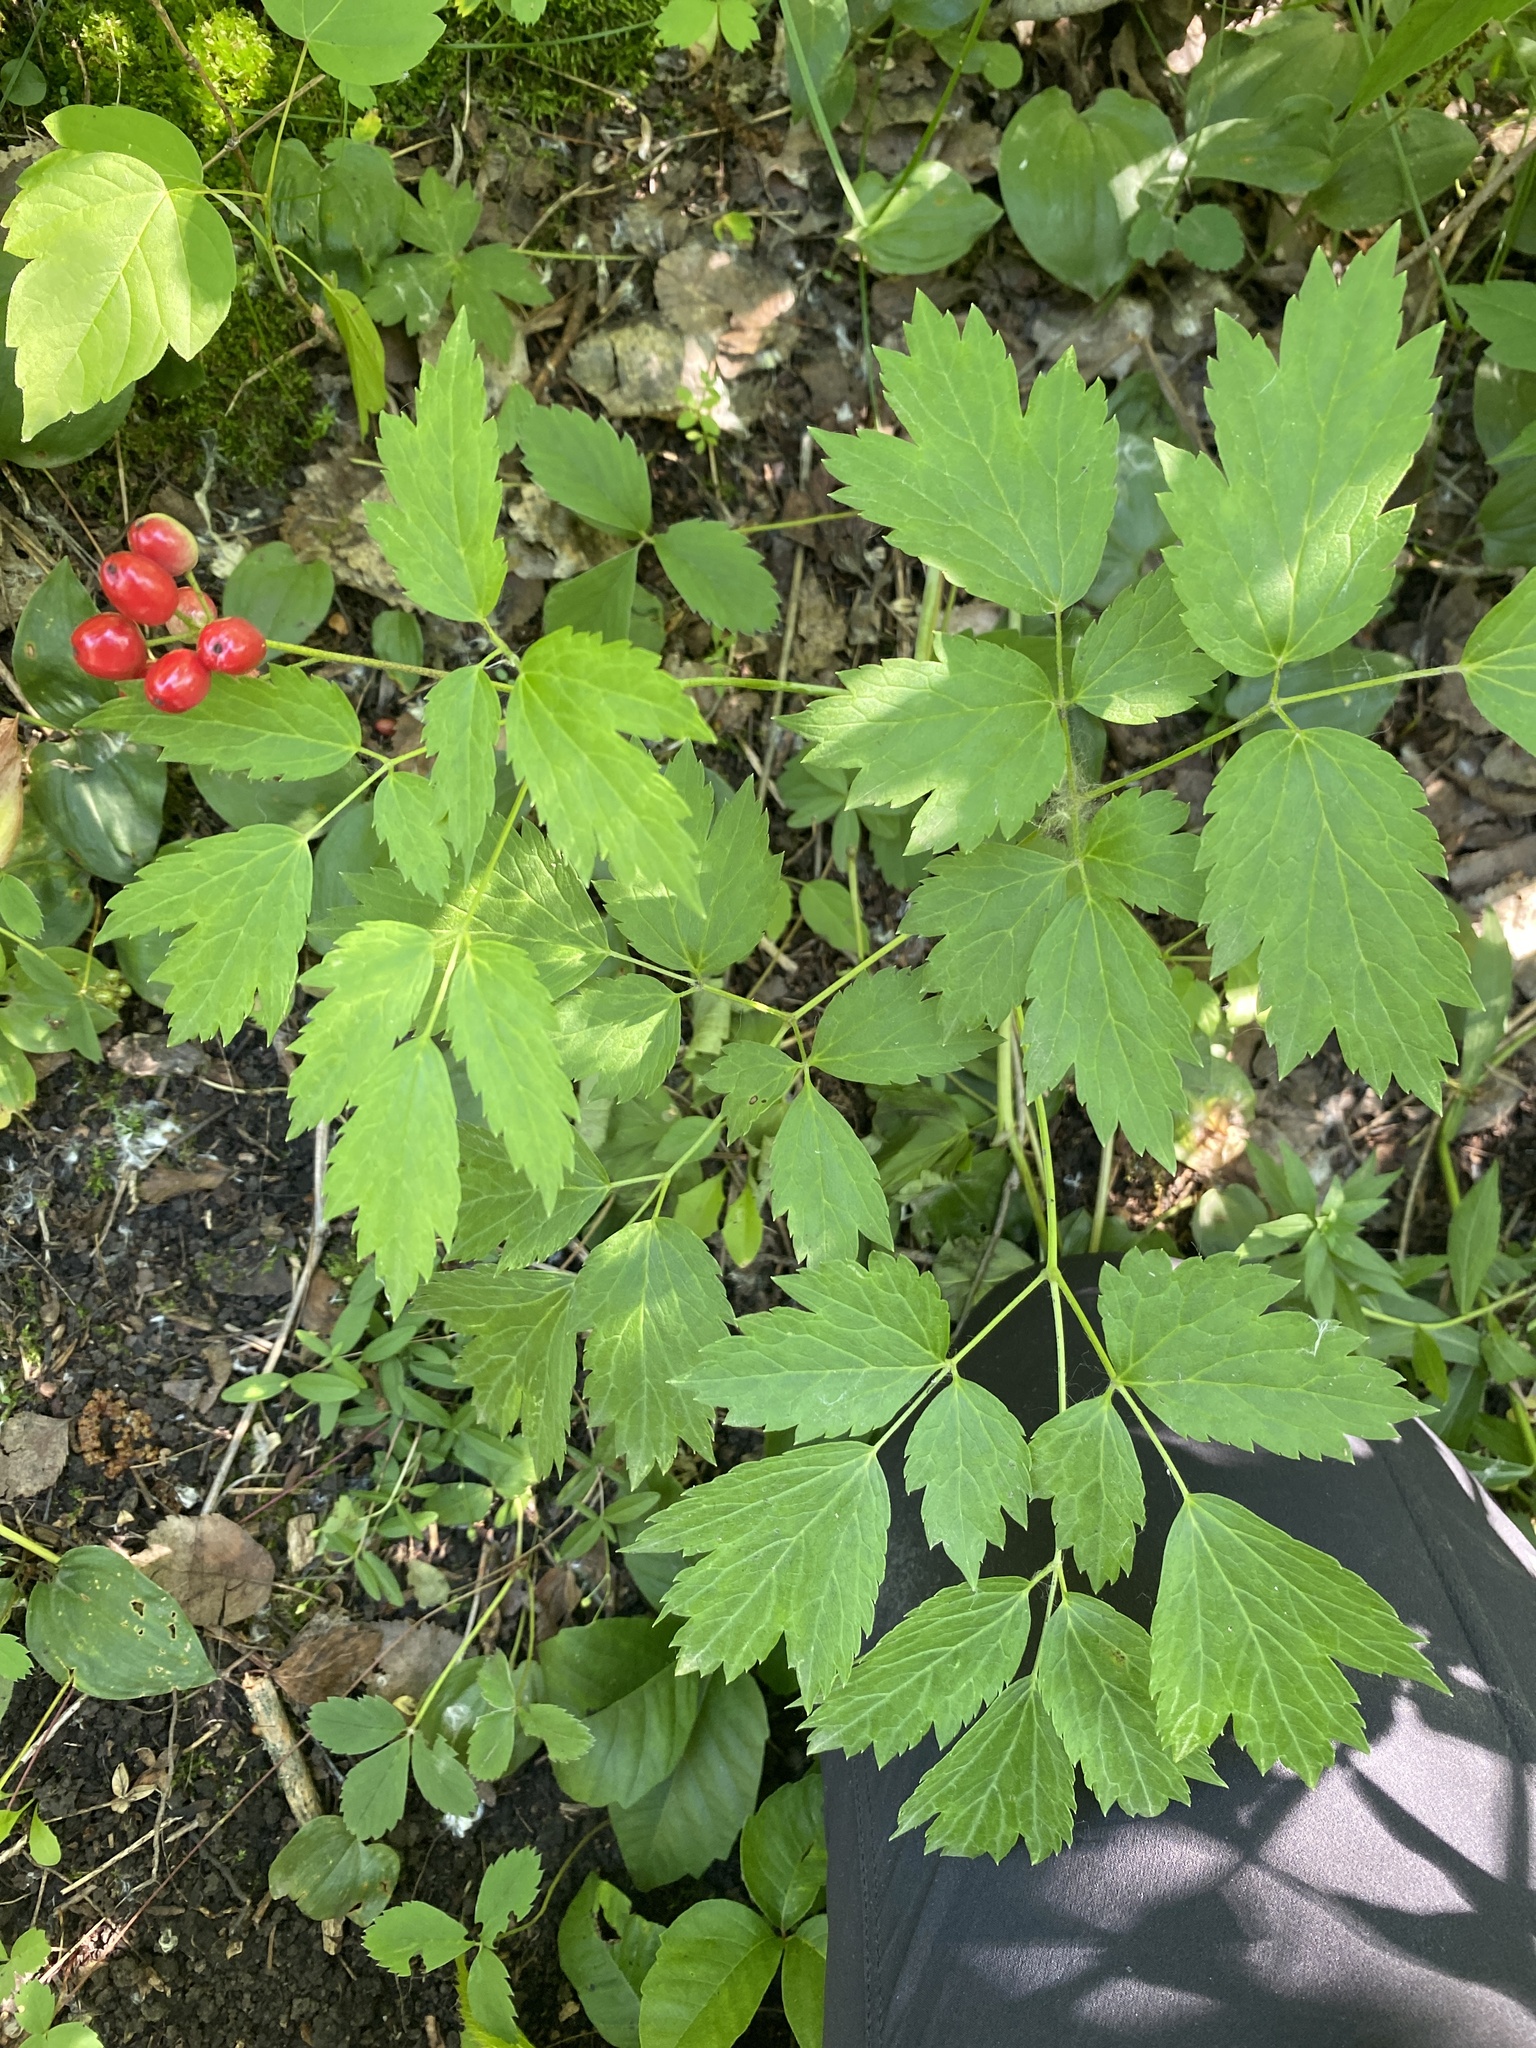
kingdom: Plantae
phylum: Tracheophyta
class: Magnoliopsida
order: Ranunculales
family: Ranunculaceae
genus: Actaea
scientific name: Actaea rubra
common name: Red baneberry
